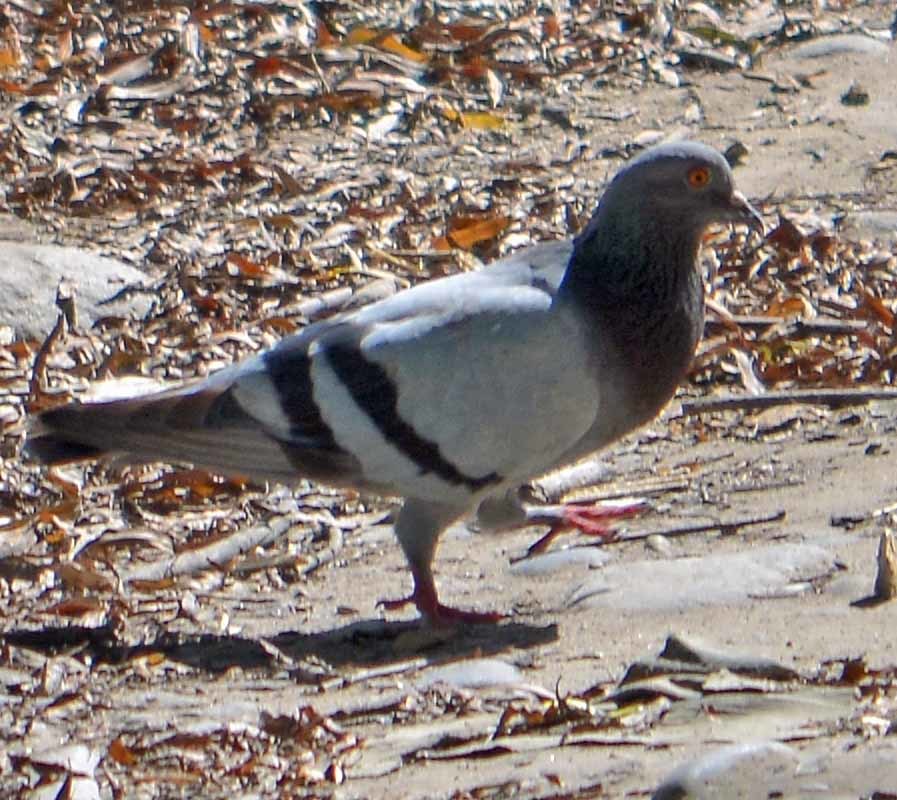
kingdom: Animalia
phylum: Chordata
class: Aves
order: Columbiformes
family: Columbidae
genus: Columba
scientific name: Columba livia
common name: Rock pigeon
